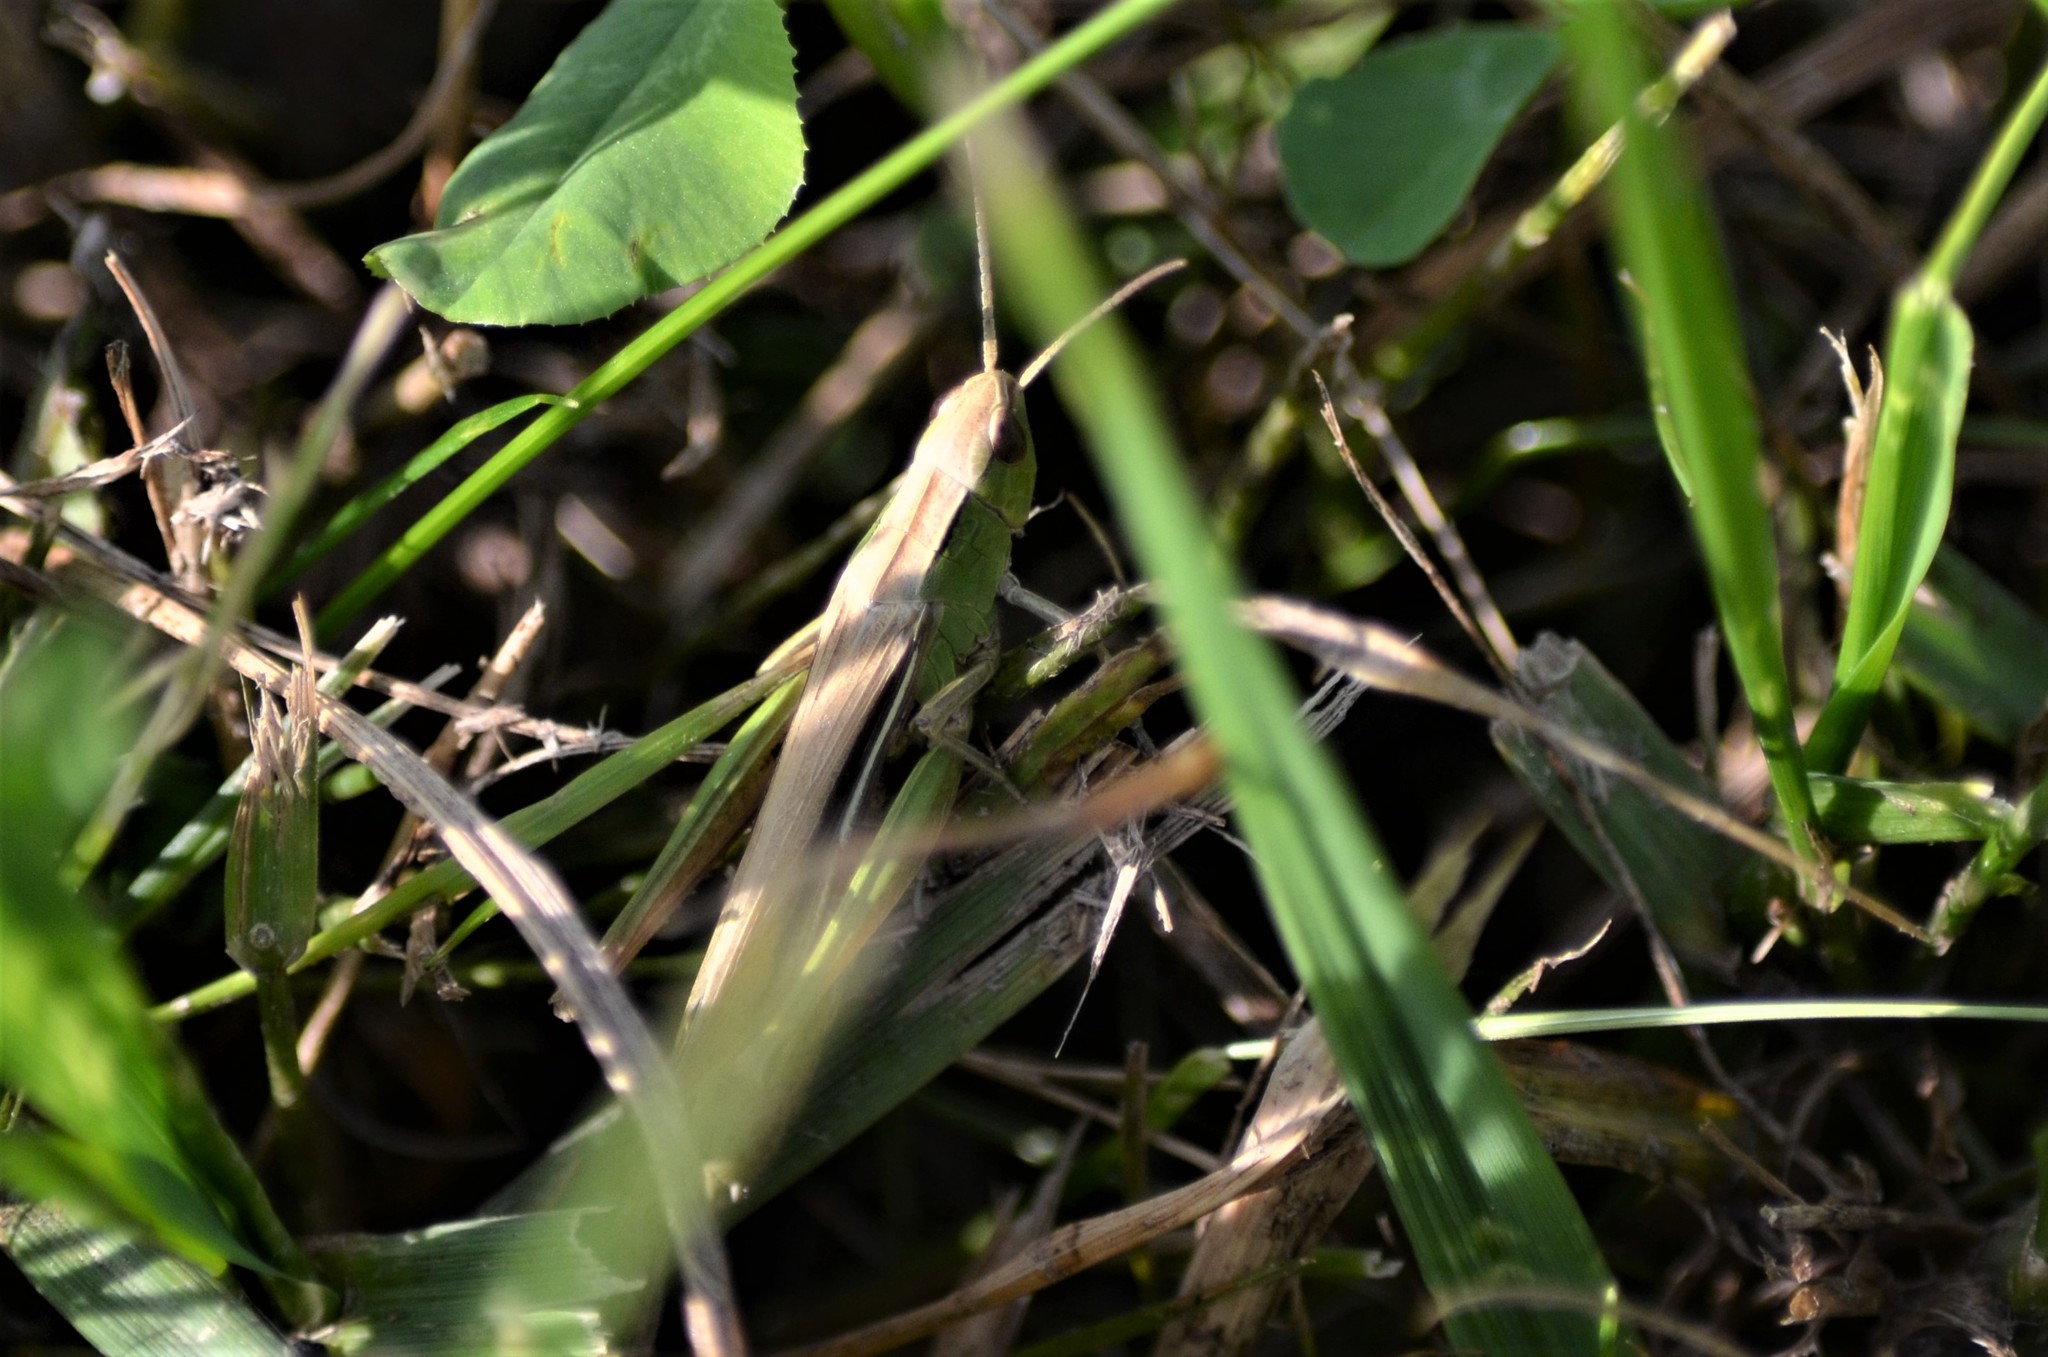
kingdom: Animalia
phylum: Arthropoda
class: Insecta
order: Orthoptera
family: Acrididae
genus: Chorthippus
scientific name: Chorthippus albomarginatus
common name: Lesser marsh grasshopper
